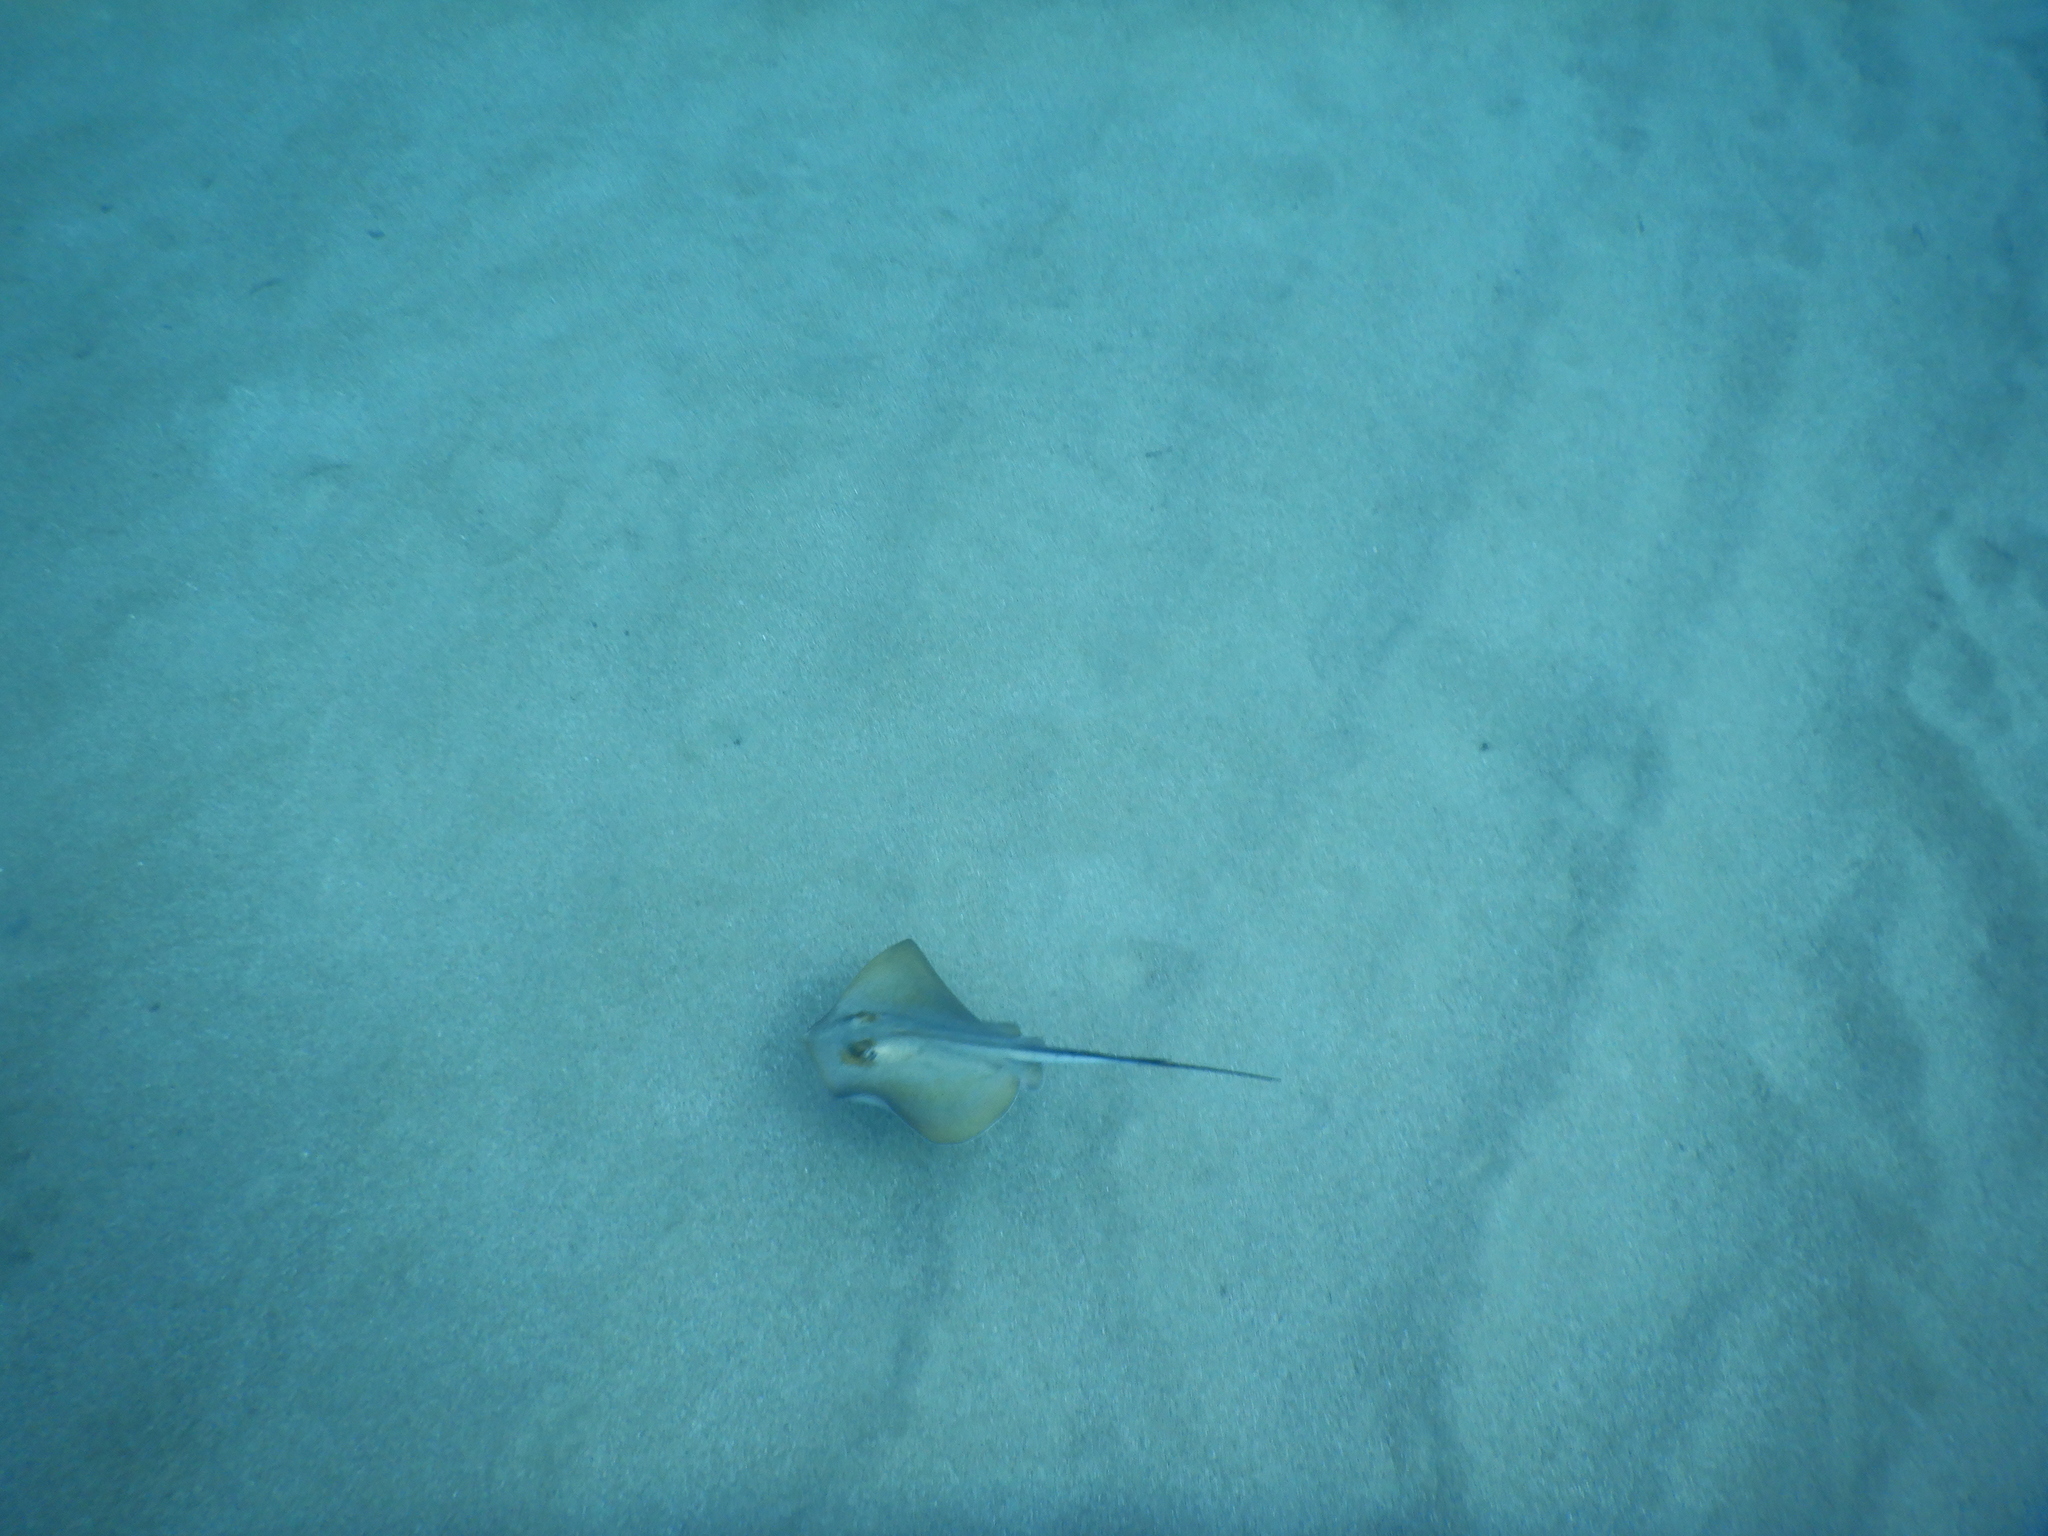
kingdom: Animalia
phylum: Chordata
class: Elasmobranchii
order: Myliobatiformes
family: Dasyatidae
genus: Dasyatis
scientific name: Dasyatis pastinaca
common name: Common stingray
